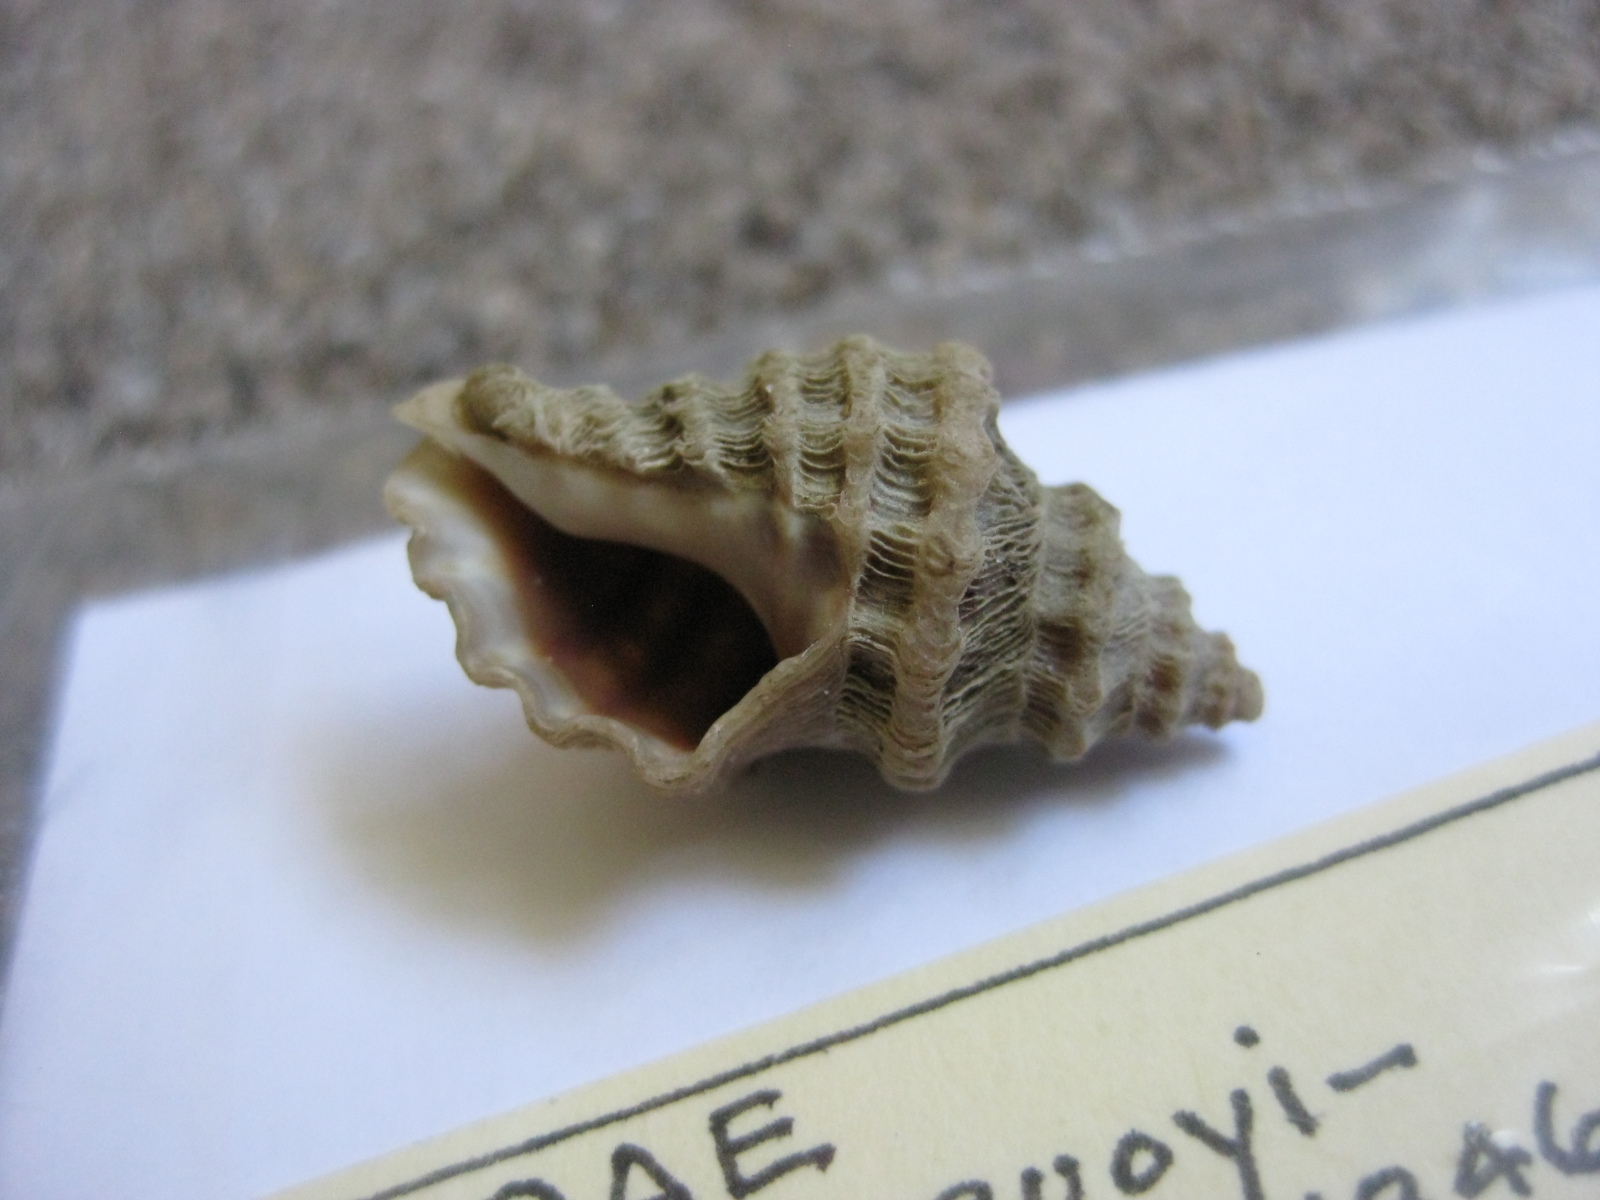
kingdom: Animalia
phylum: Mollusca
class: Gastropoda
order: Neogastropoda
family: Muricidae
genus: Paratrophon
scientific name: Paratrophon quoyi
